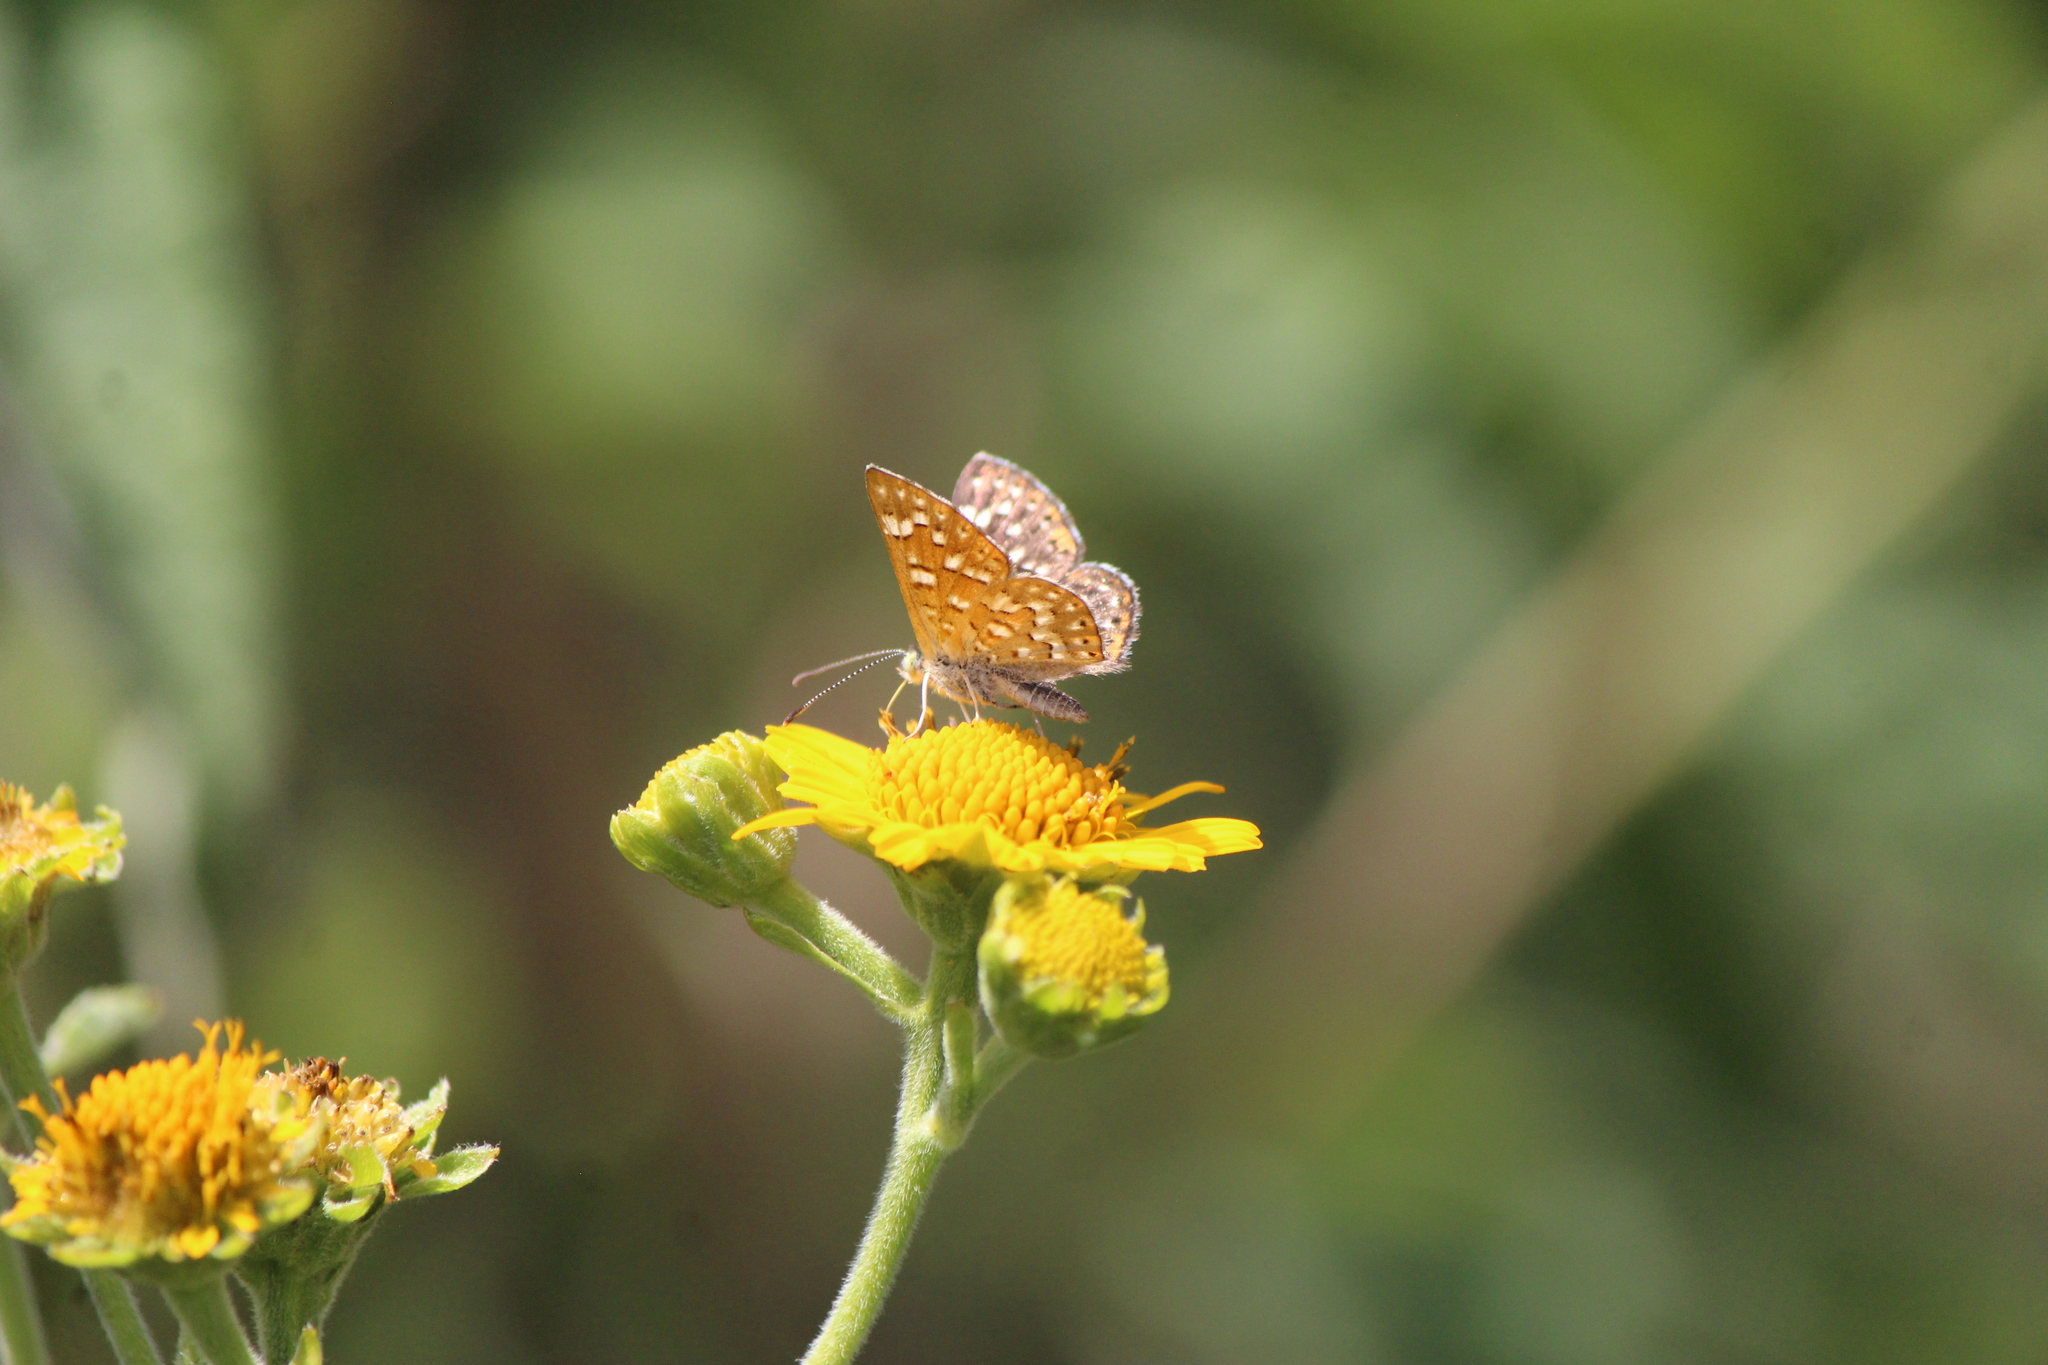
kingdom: Animalia
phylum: Arthropoda
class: Insecta
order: Lepidoptera
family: Riodinidae
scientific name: Riodinidae
